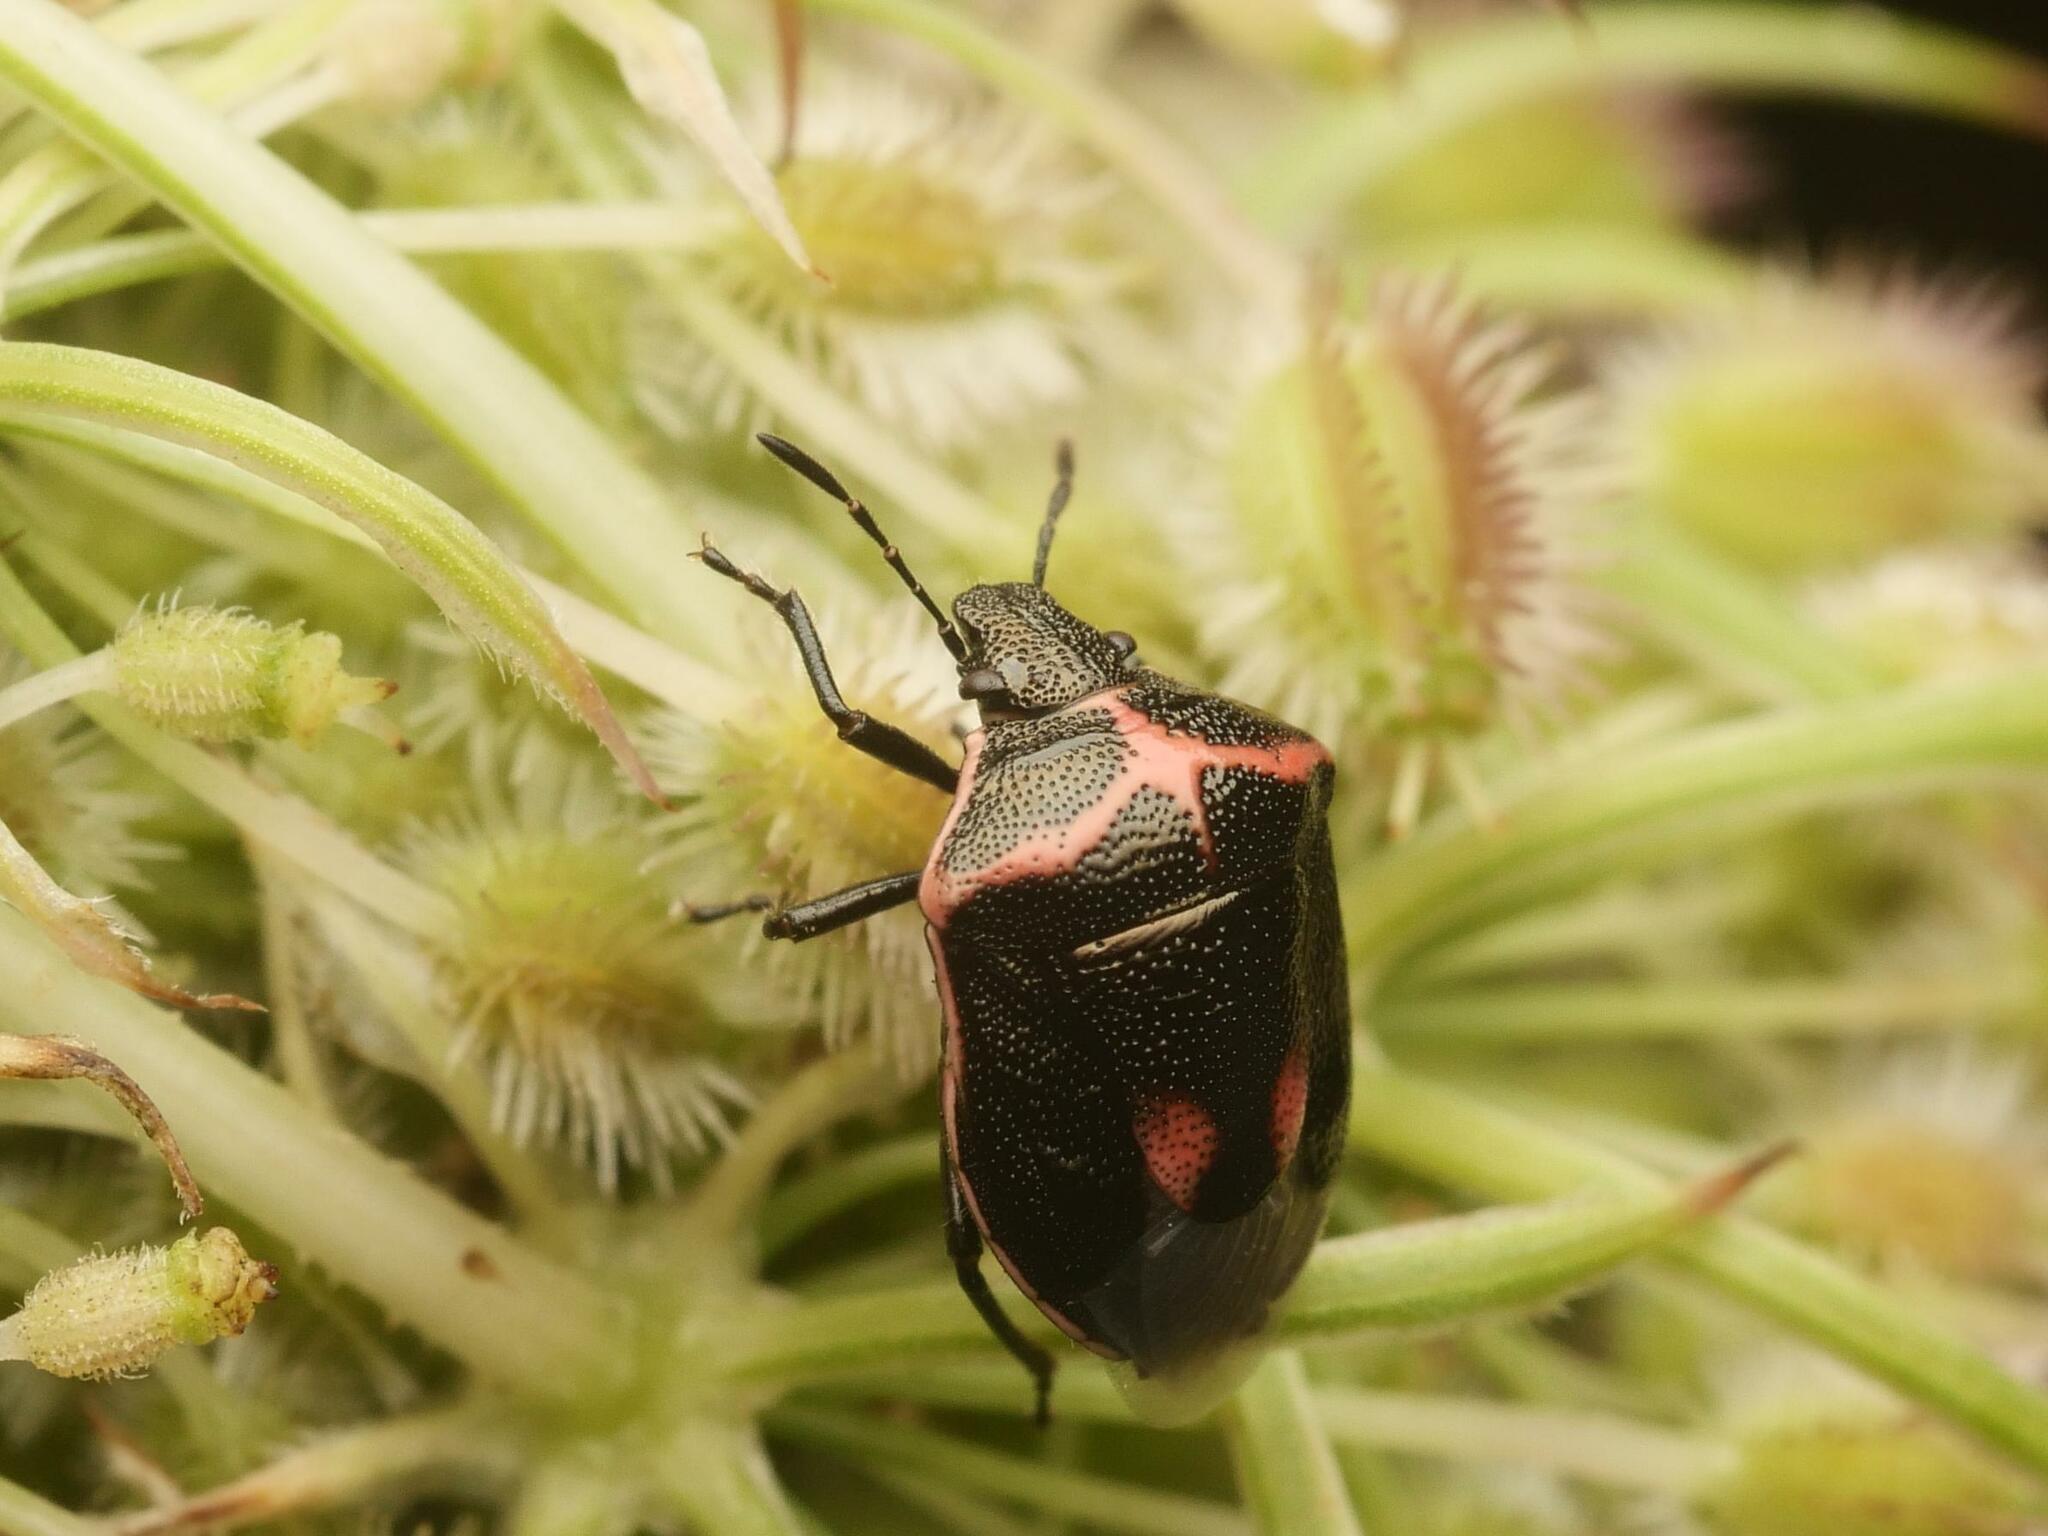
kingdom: Animalia
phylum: Arthropoda
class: Insecta
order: Hemiptera
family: Pentatomidae
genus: Cosmopepla
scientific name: Cosmopepla lintneriana
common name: Twice-stabbed stink bug
